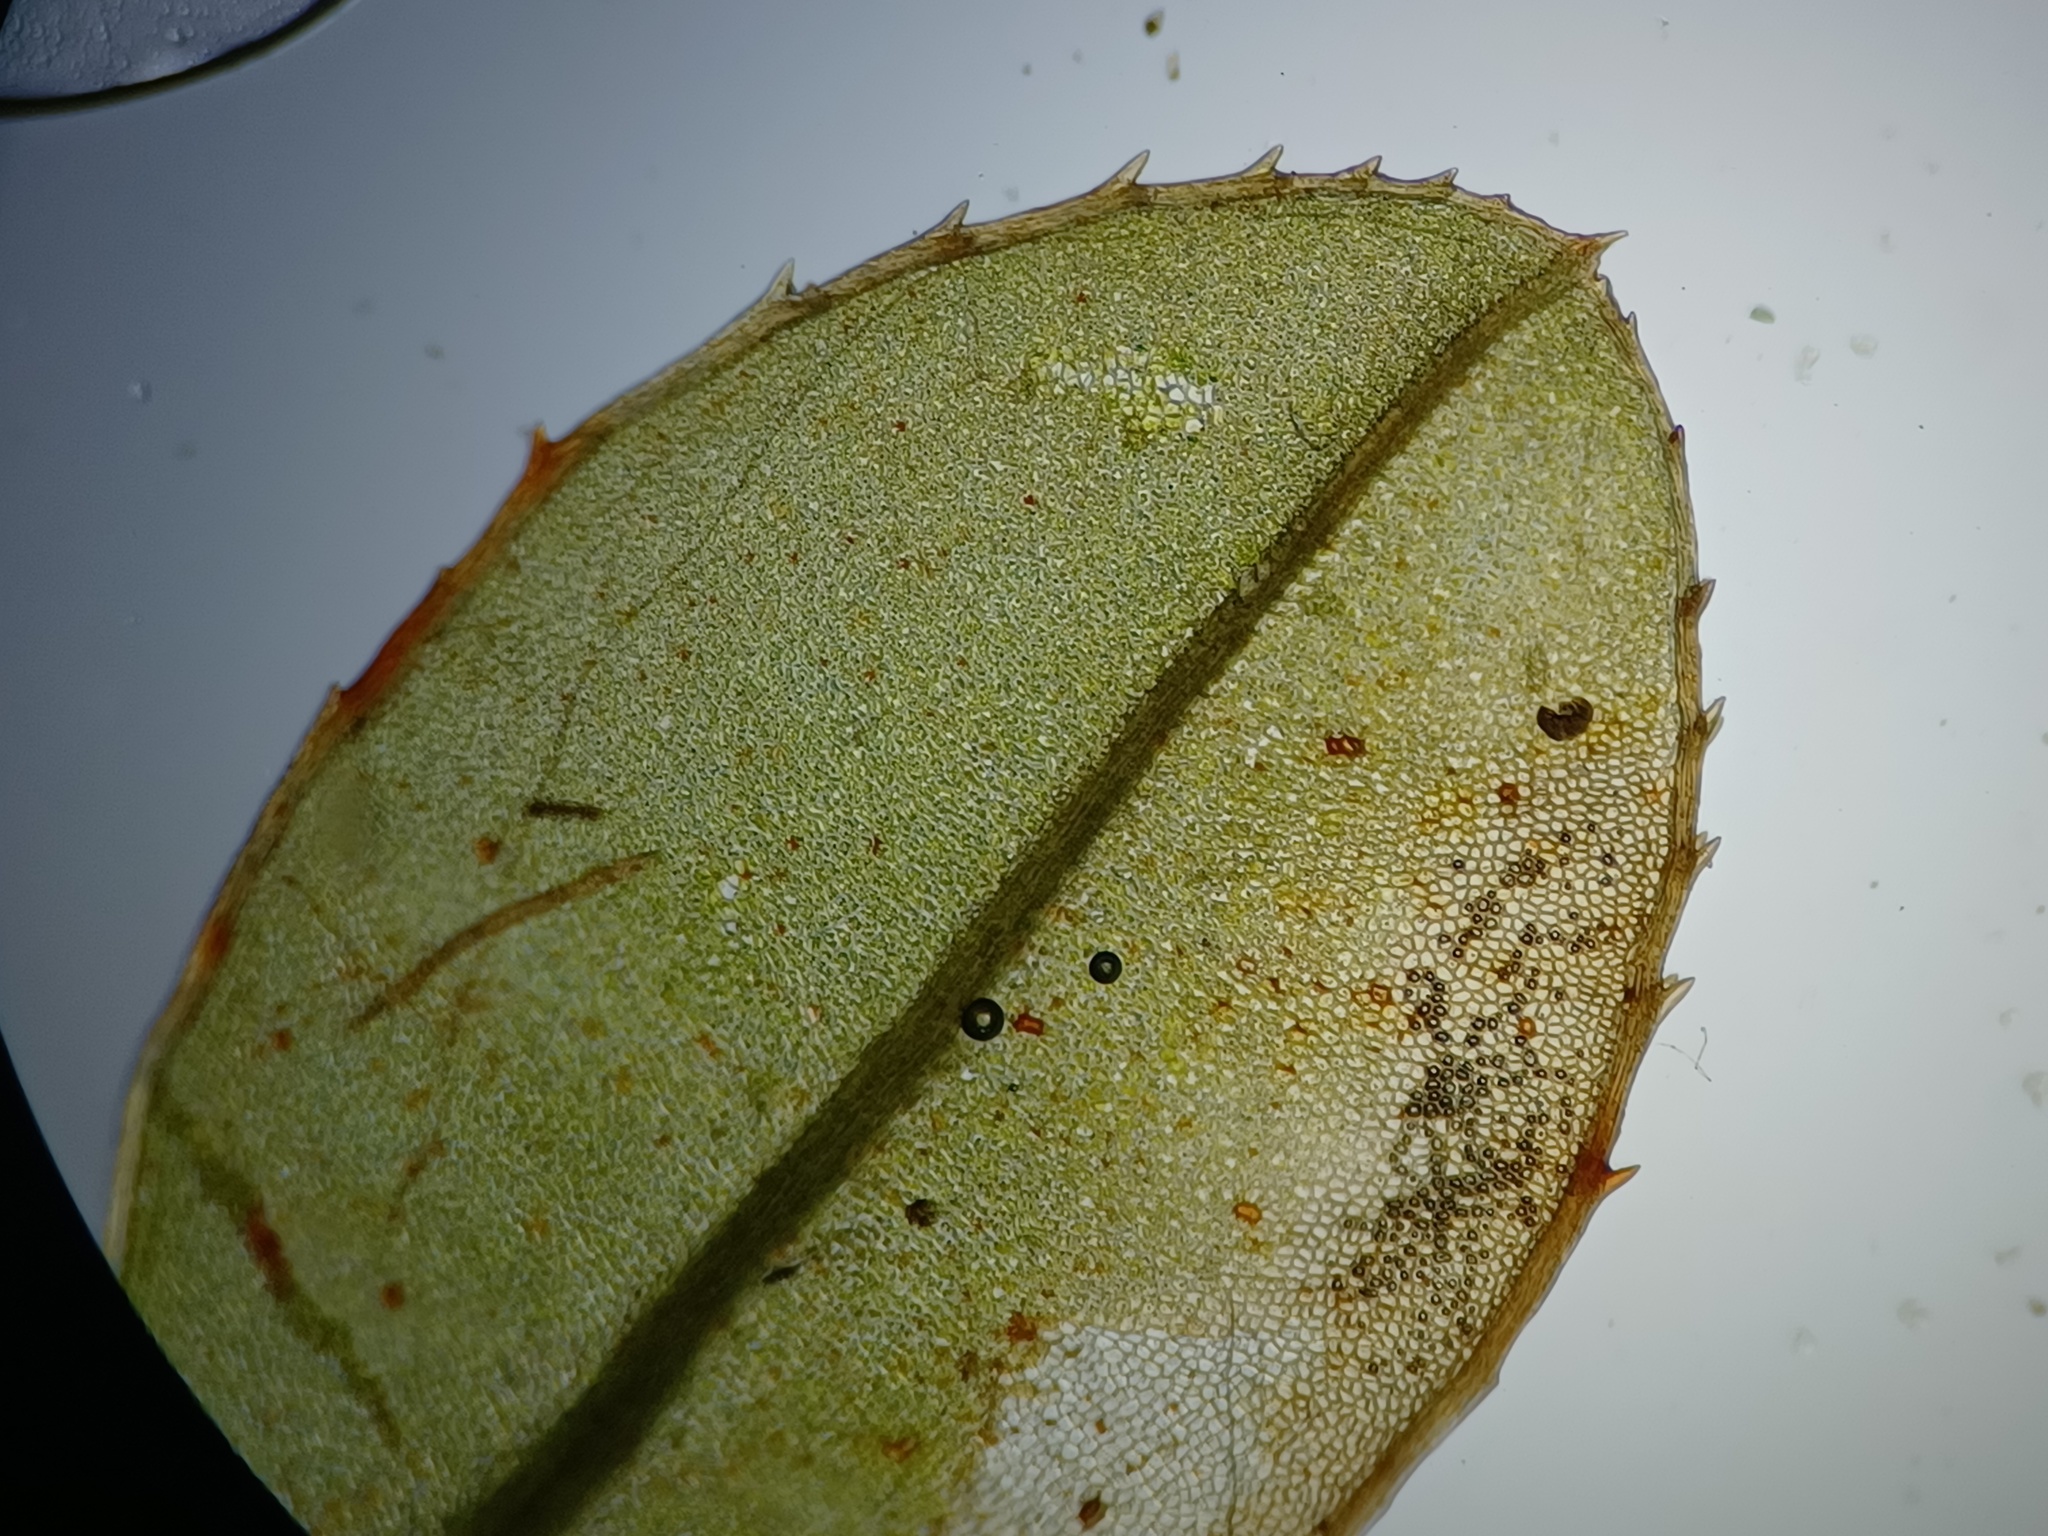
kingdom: Plantae
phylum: Bryophyta
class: Bryopsida
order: Bryales
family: Mniaceae
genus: Mnium
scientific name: Mnium spinulosum
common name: Red-mouthed leafy moss
